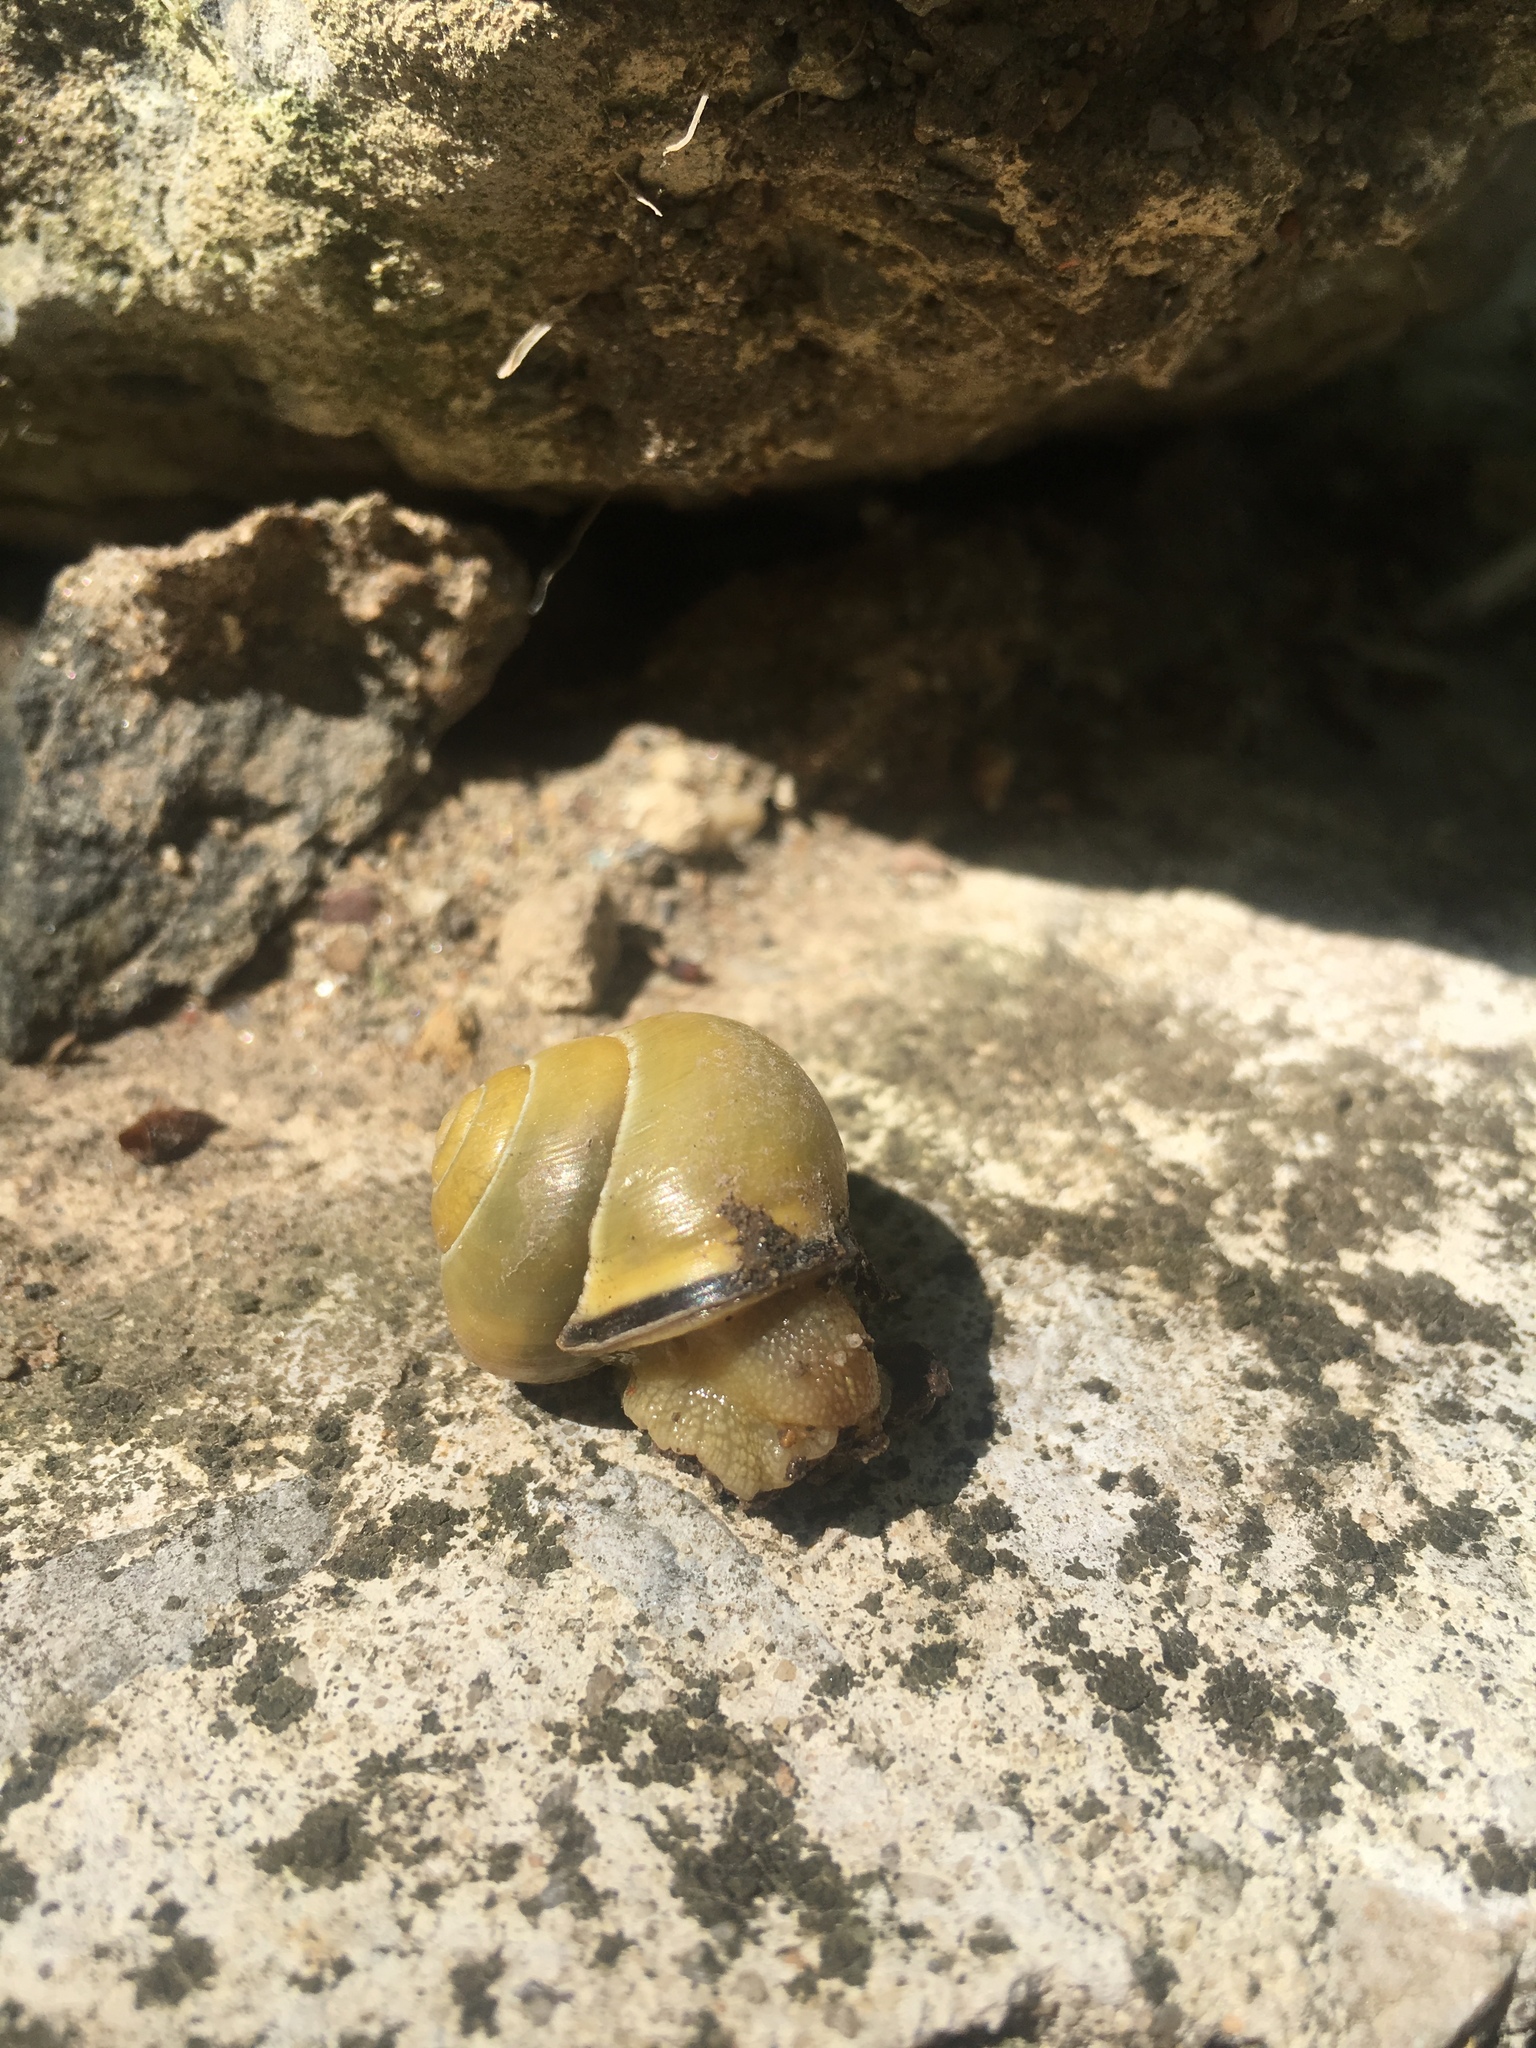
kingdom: Animalia
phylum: Mollusca
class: Gastropoda
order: Stylommatophora
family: Helicidae
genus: Cepaea
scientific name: Cepaea nemoralis
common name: Grovesnail
